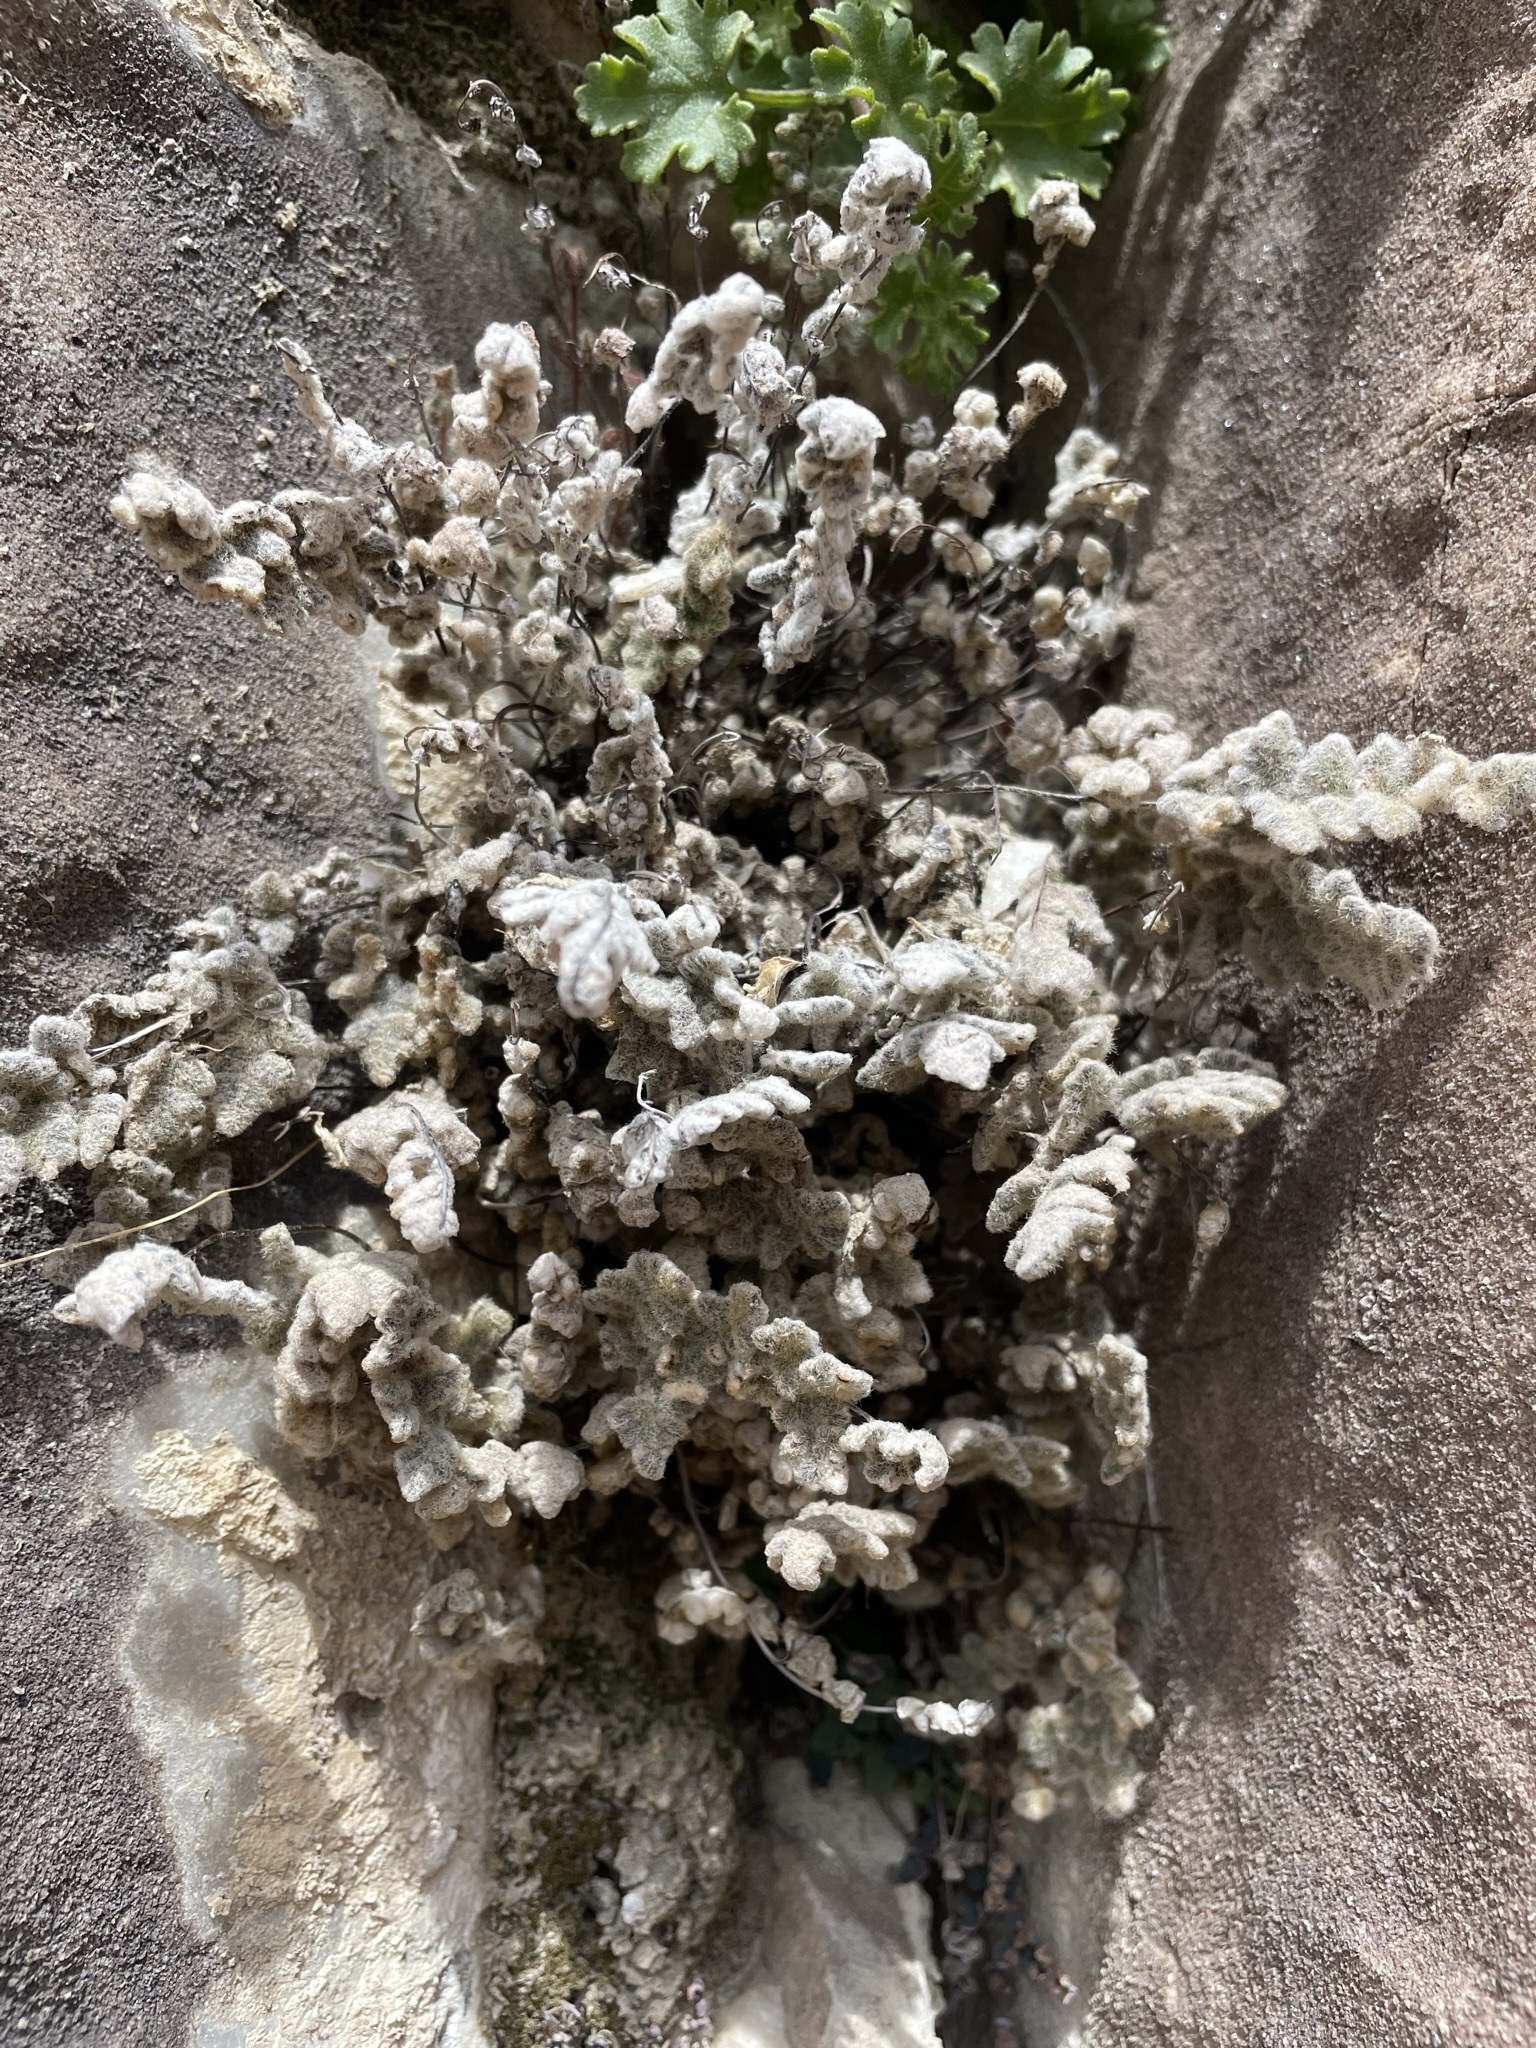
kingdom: Plantae
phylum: Tracheophyta
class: Polypodiopsida
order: Polypodiales
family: Pteridaceae
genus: Myriopteris
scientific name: Myriopteris parryi
